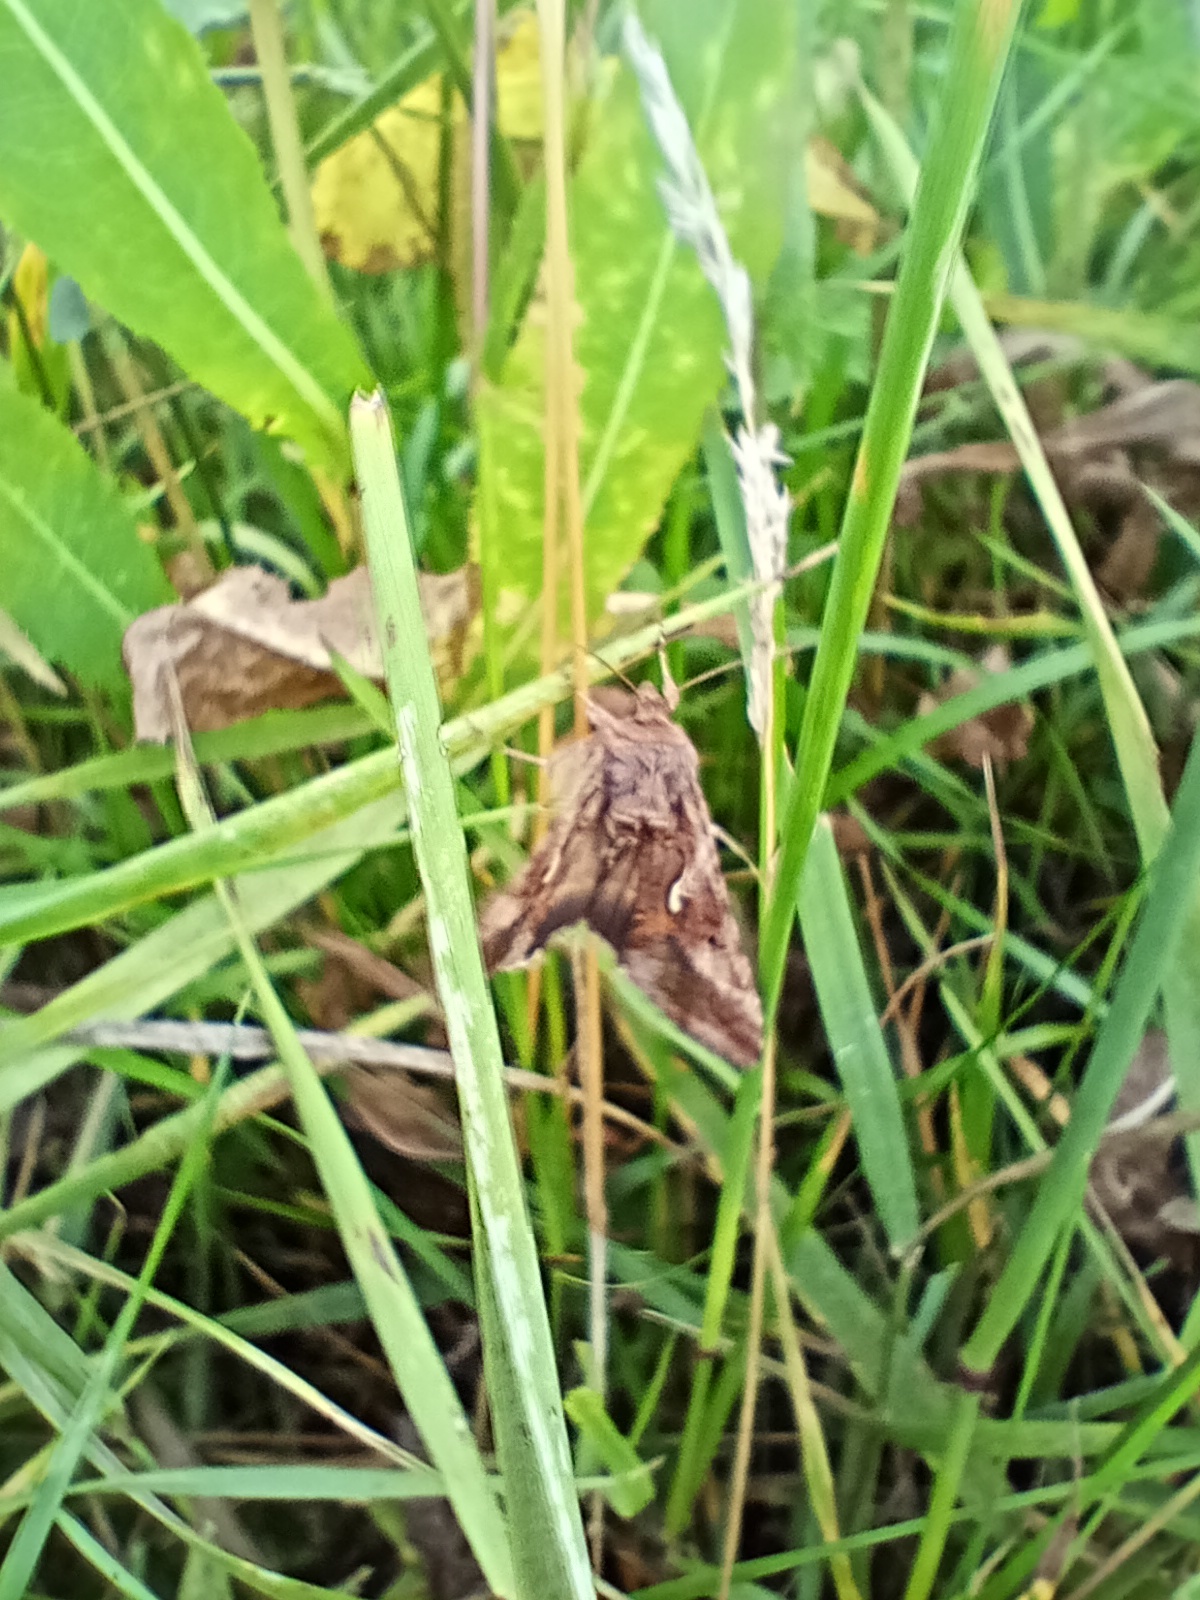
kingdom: Animalia
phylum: Arthropoda
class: Insecta
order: Lepidoptera
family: Noctuidae
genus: Autographa
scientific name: Autographa gamma
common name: Silver y
